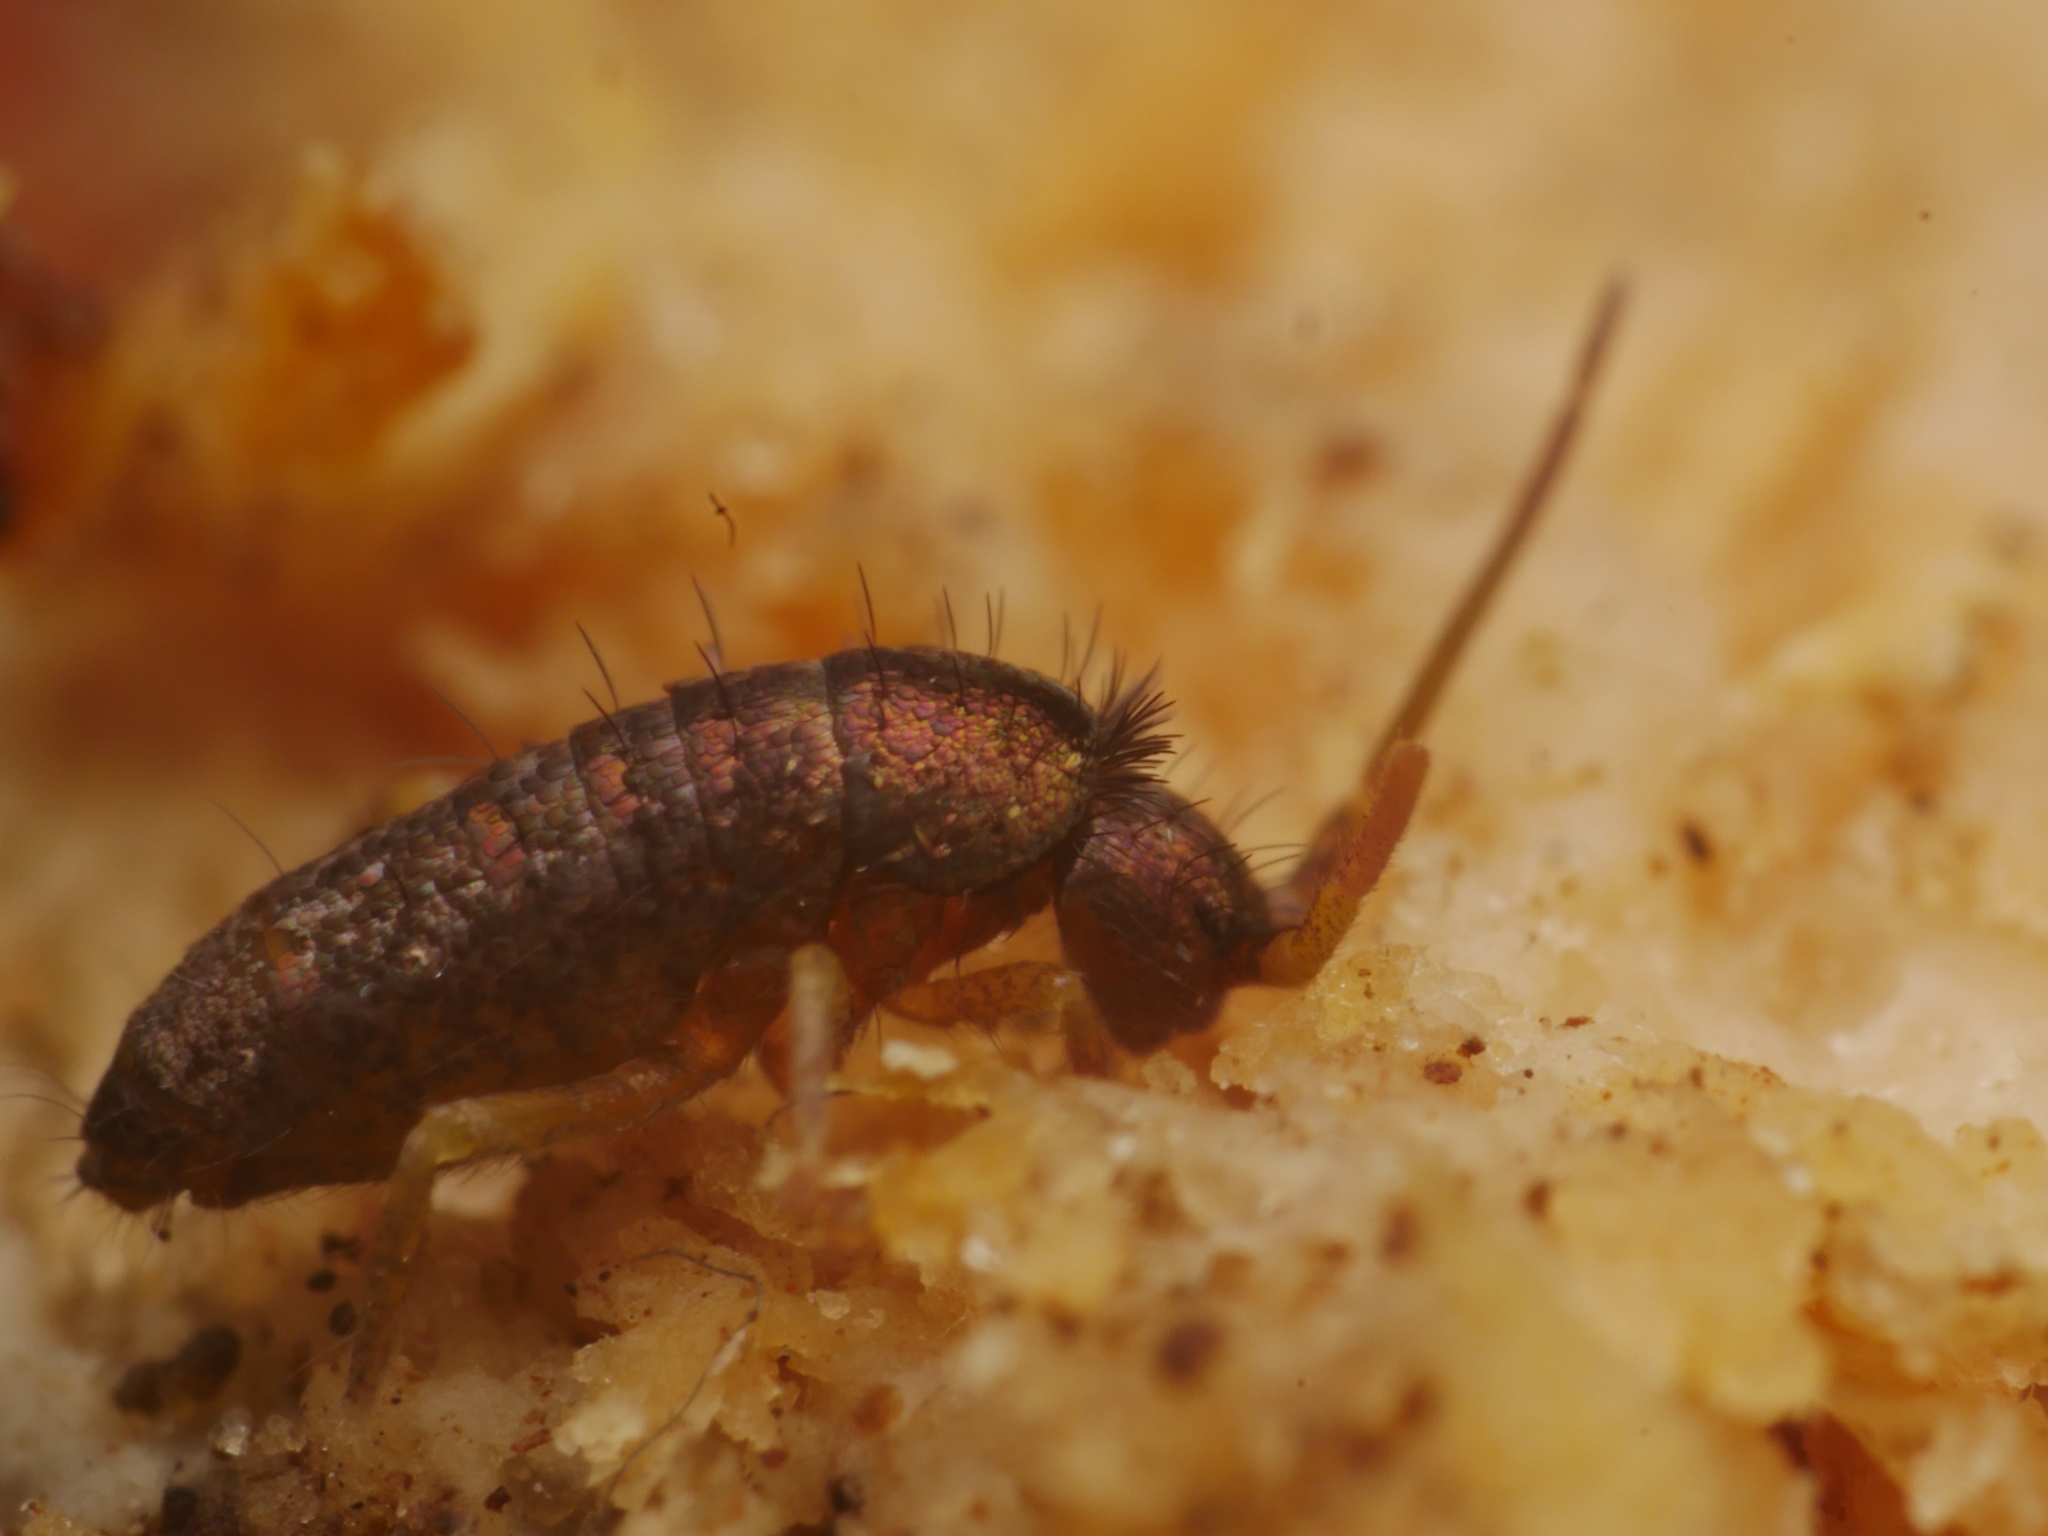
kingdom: Animalia
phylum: Arthropoda
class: Collembola
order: Entomobryomorpha
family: Tomoceridae
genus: Tomocerus
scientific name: Tomocerus vulgaris
